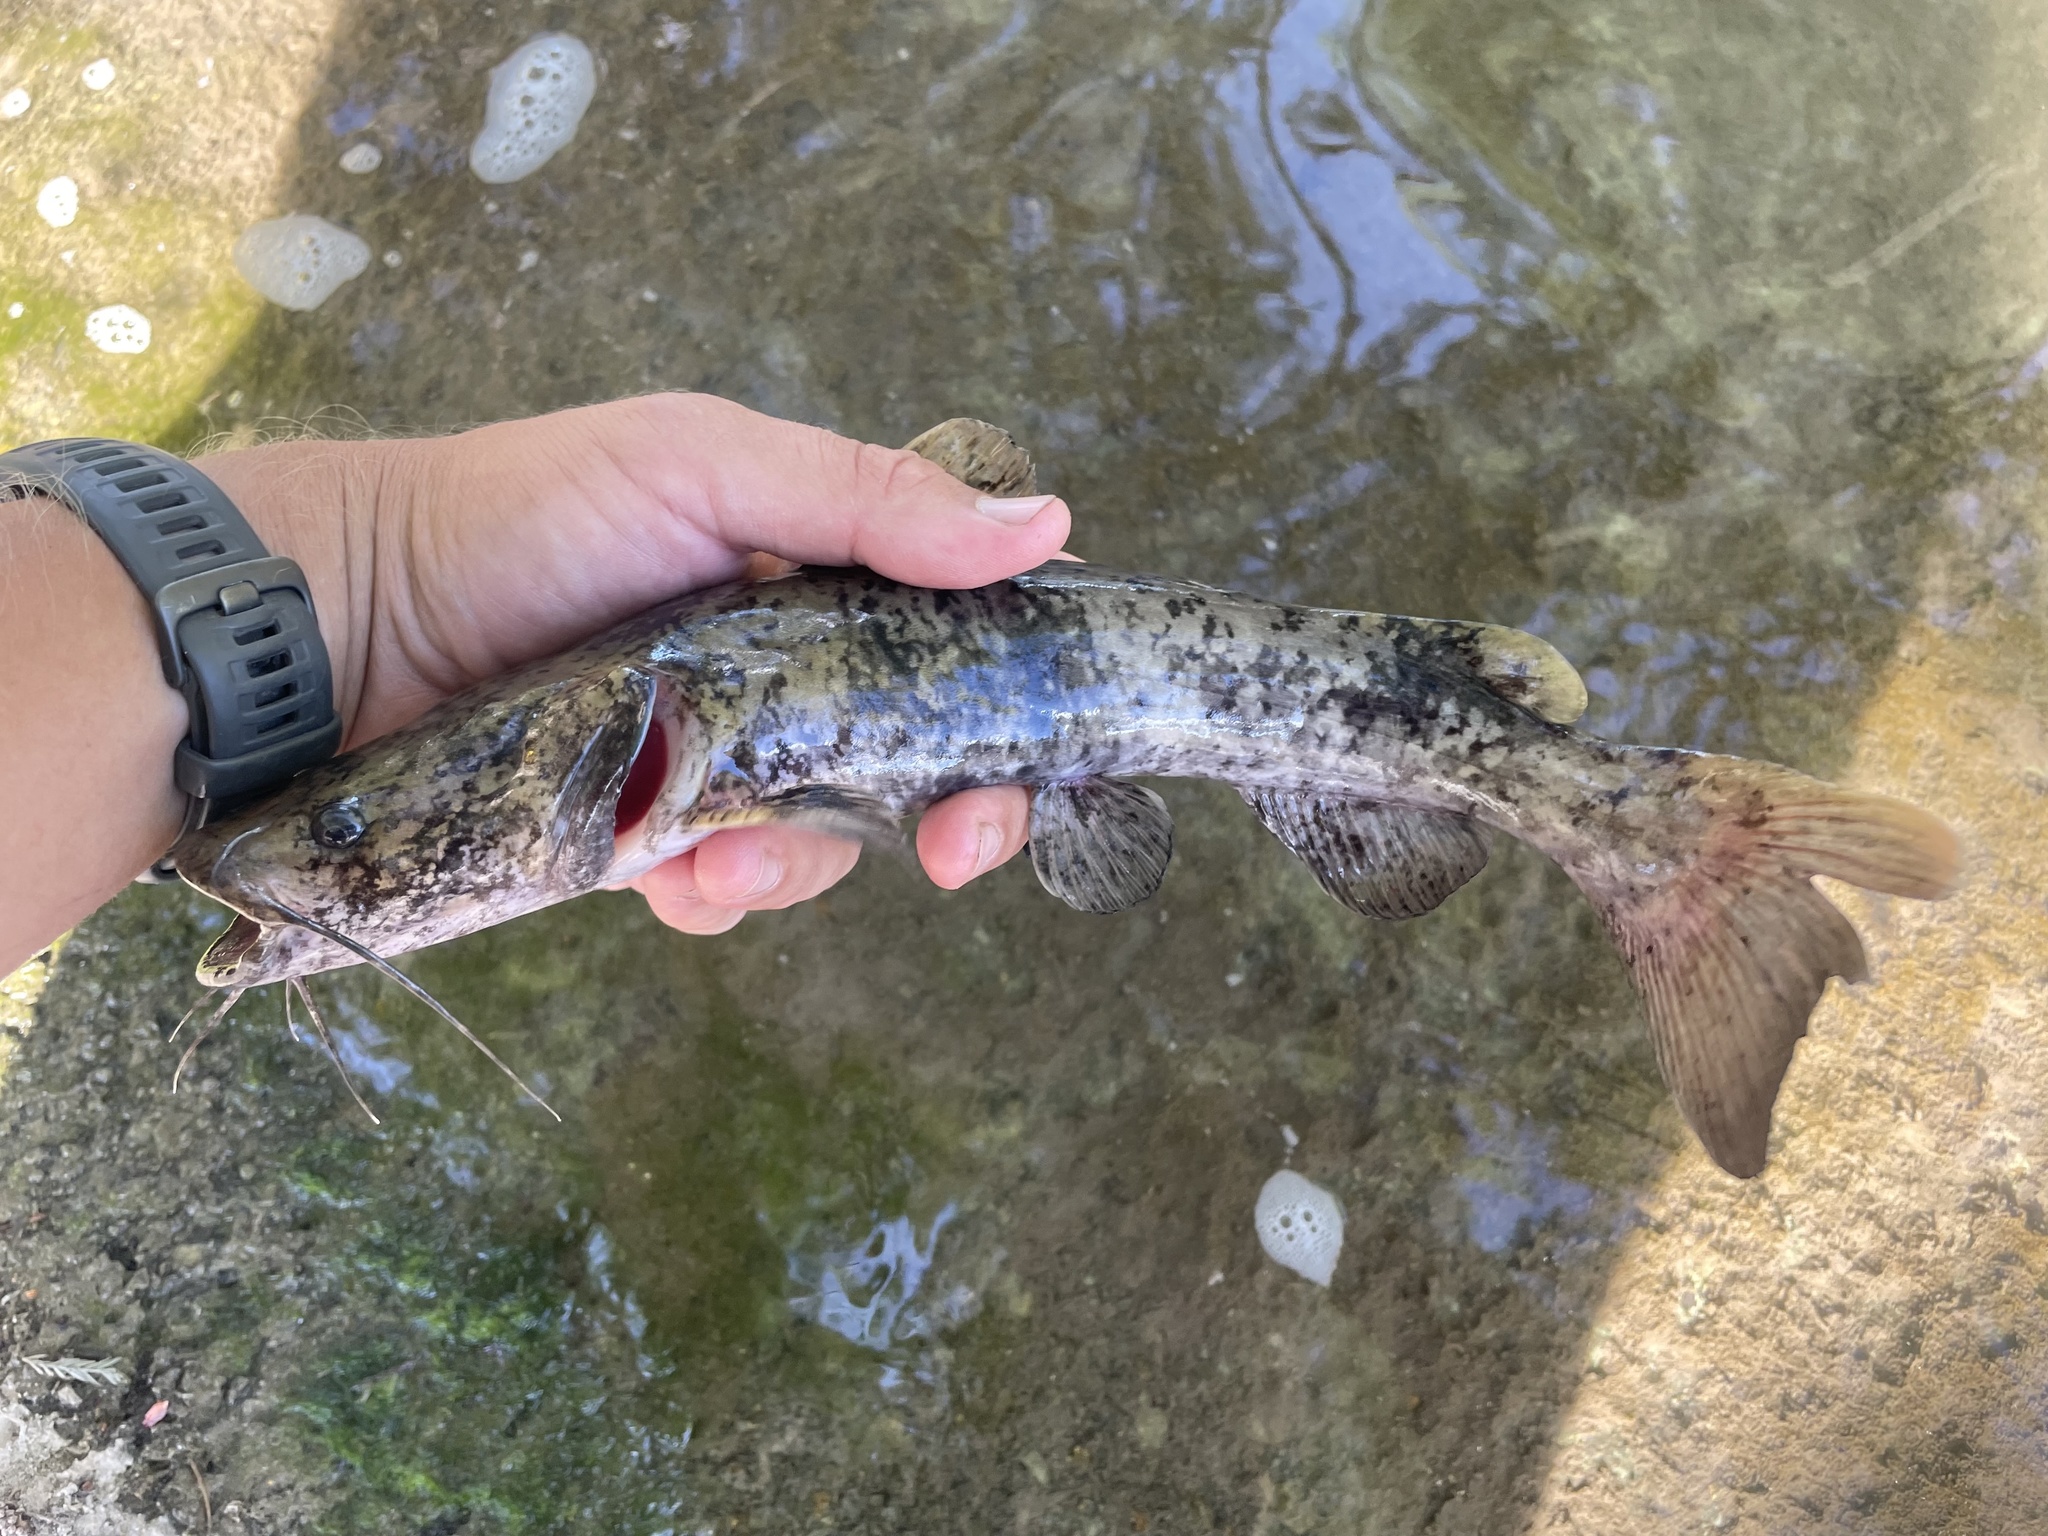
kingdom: Animalia
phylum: Chordata
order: Siluriformes
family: Ictaluridae
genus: Pylodictis
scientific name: Pylodictis olivaris
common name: Flathead catfish
